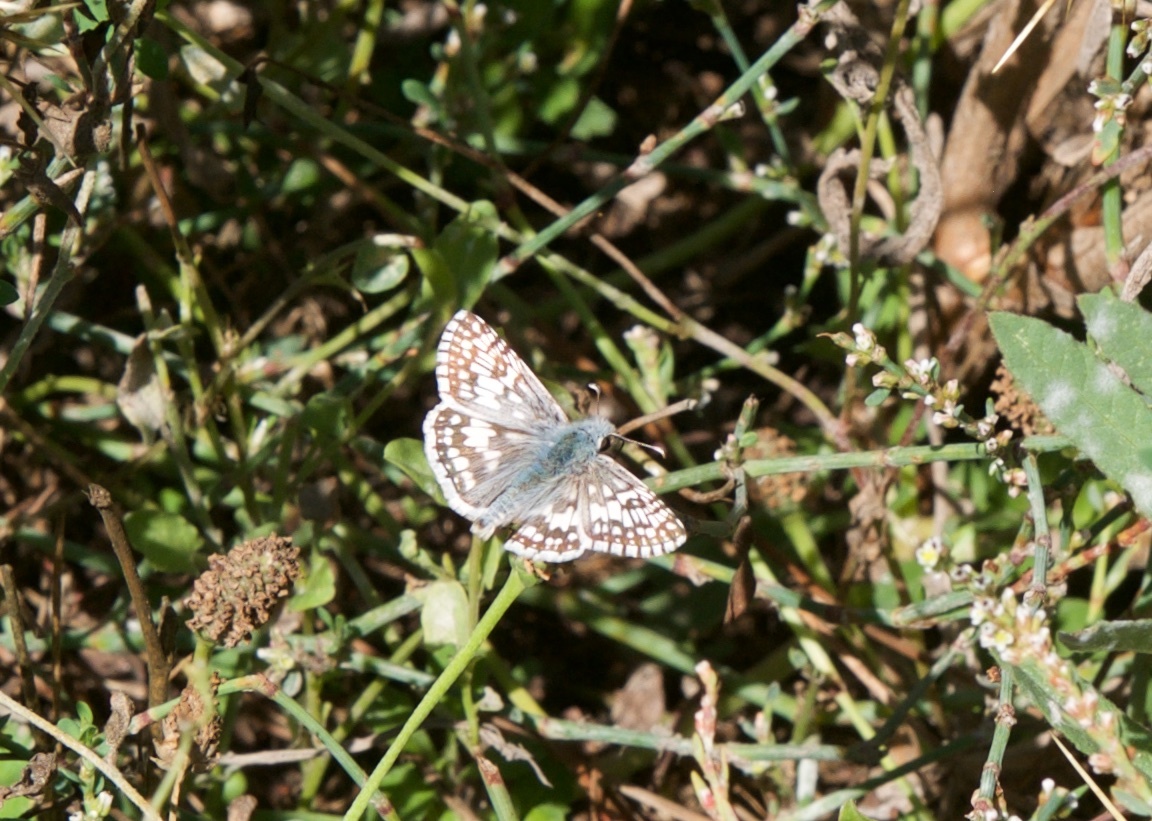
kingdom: Animalia
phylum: Arthropoda
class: Insecta
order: Lepidoptera
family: Hesperiidae
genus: Burnsius
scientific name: Burnsius communis
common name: Common checkered-skipper
